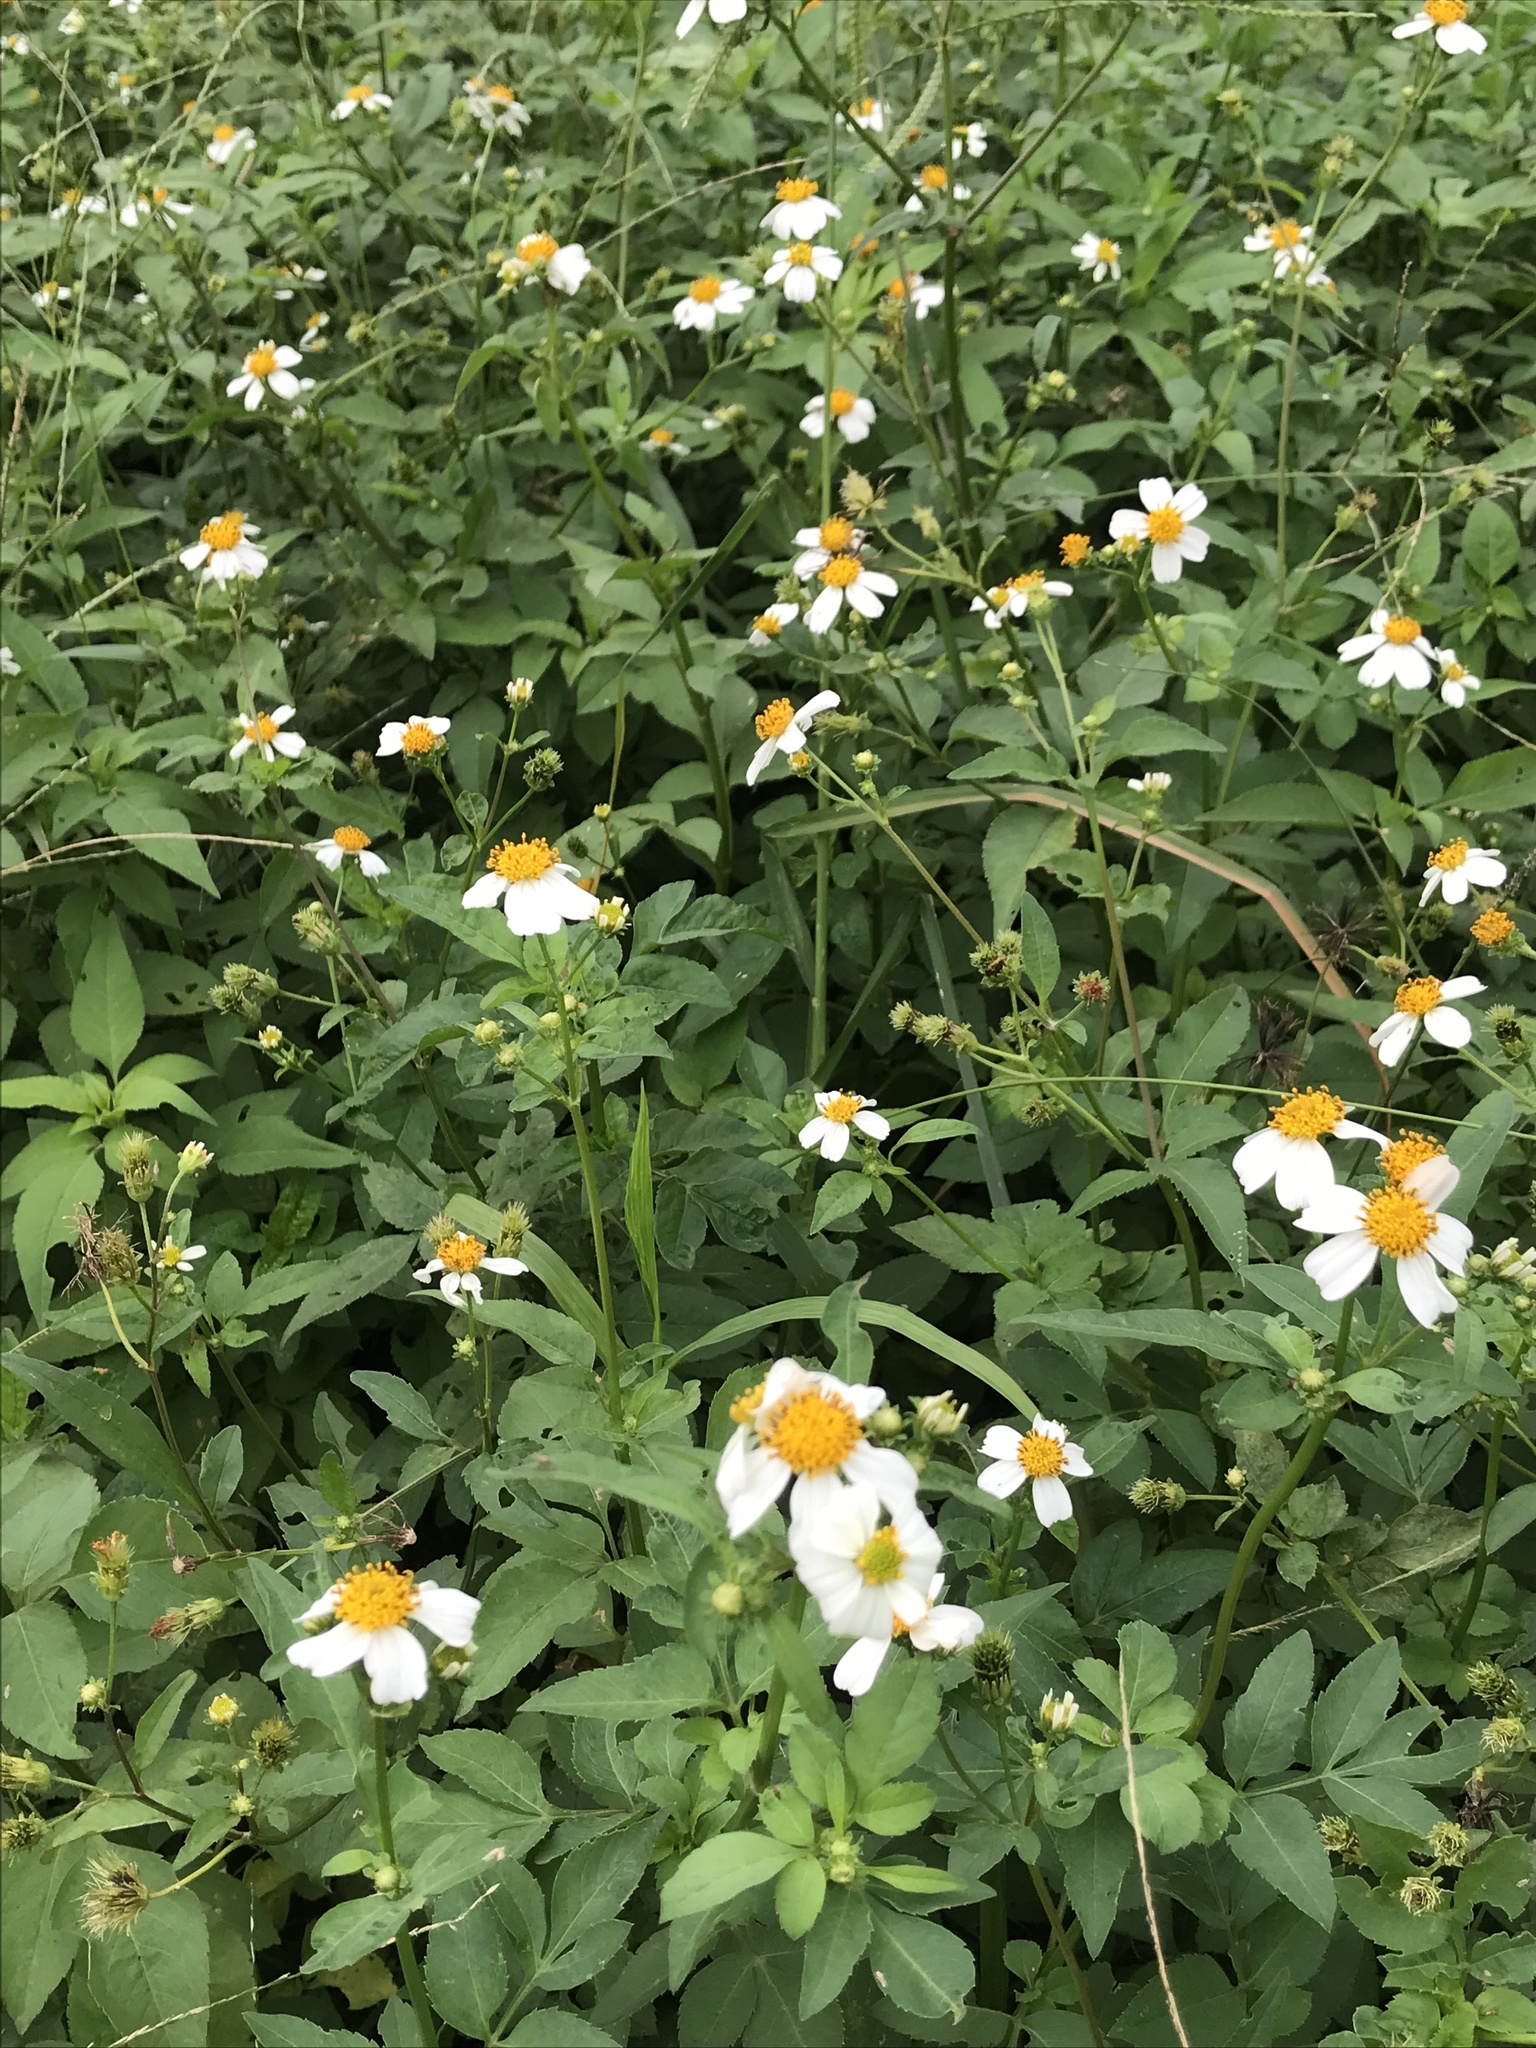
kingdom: Plantae
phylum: Tracheophyta
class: Magnoliopsida
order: Asterales
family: Asteraceae
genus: Bidens
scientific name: Bidens alba
